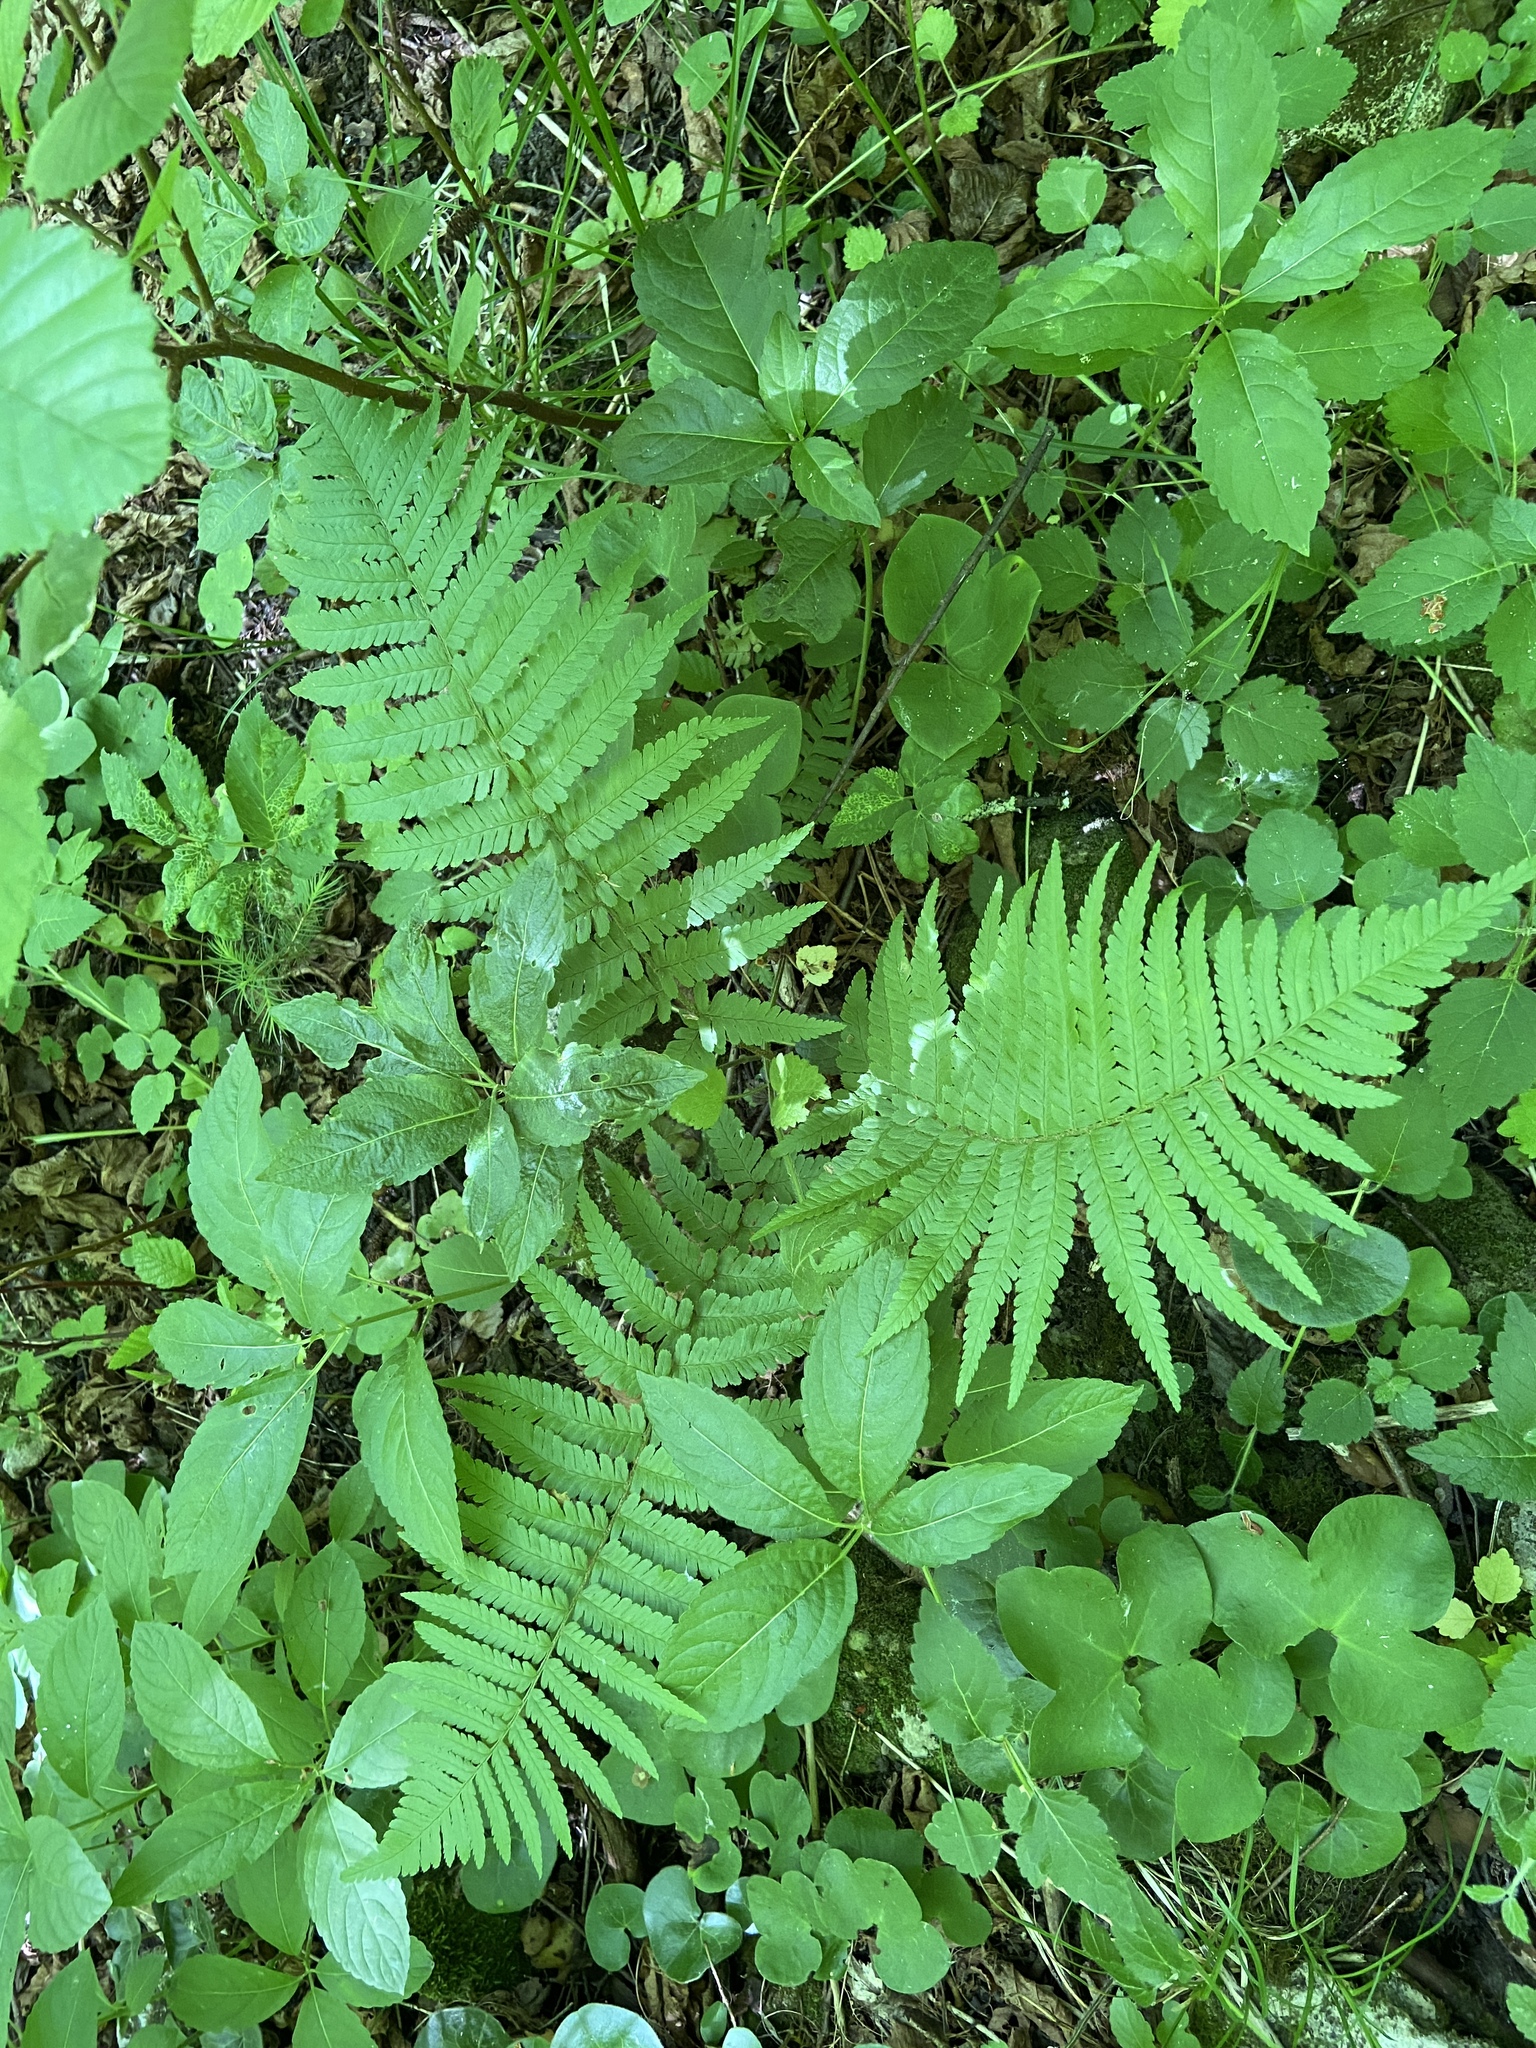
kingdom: Plantae
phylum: Tracheophyta
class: Polypodiopsida
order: Polypodiales
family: Dryopteridaceae
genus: Dryopteris
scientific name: Dryopteris filix-mas
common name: Male fern
